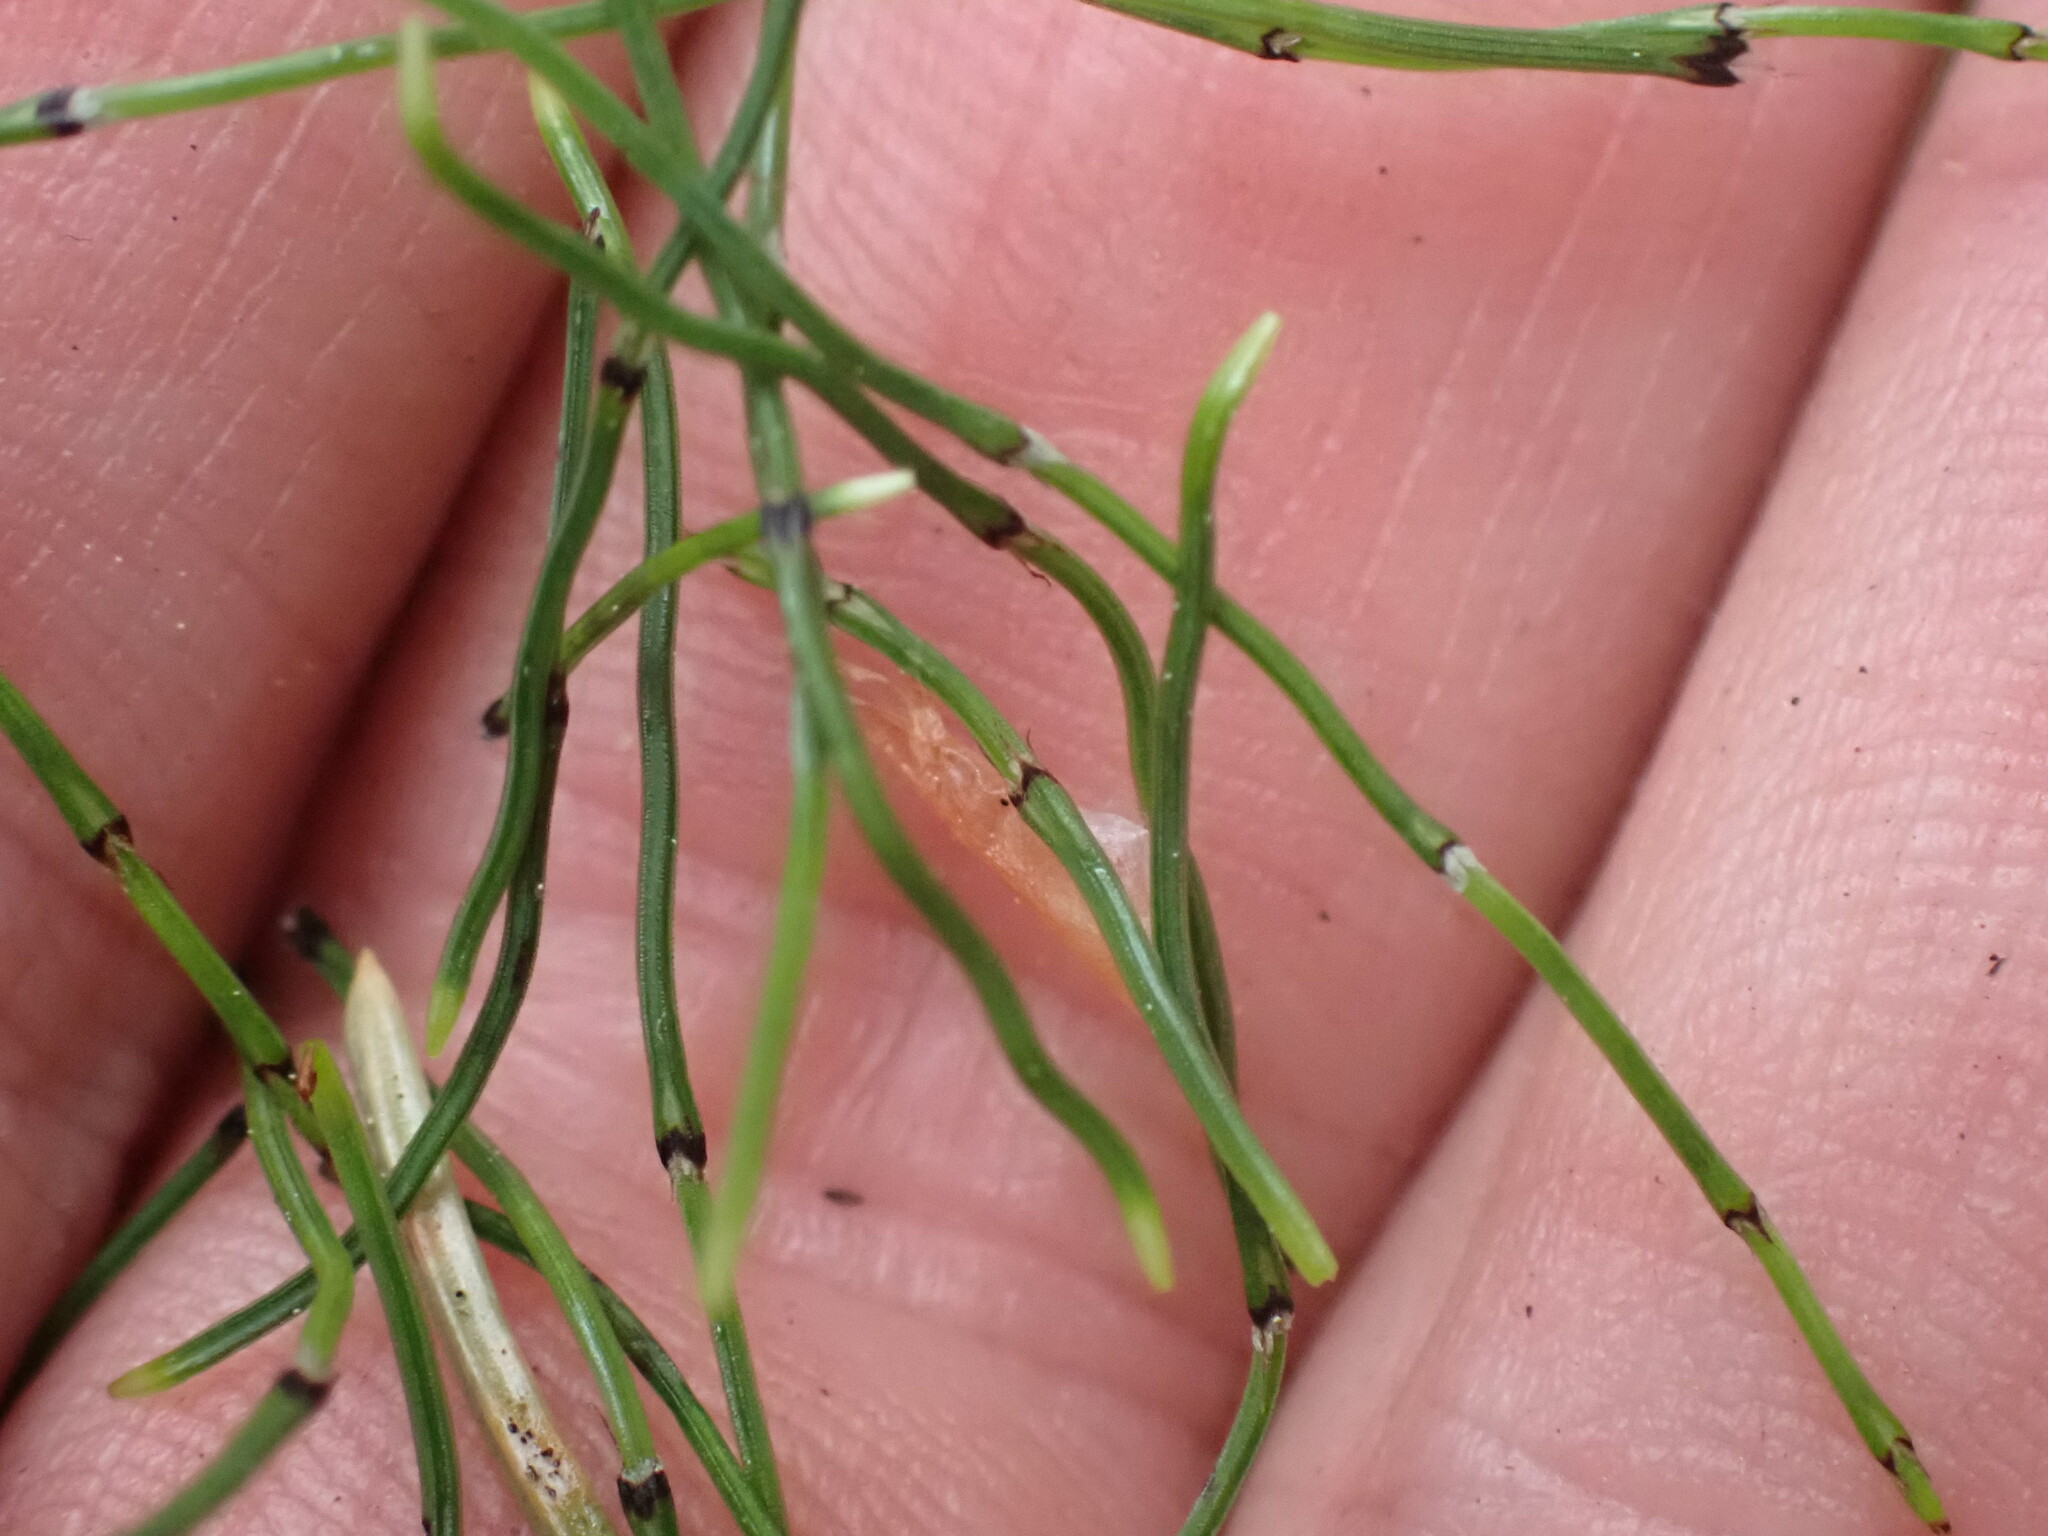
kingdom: Plantae
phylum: Tracheophyta
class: Polypodiopsida
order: Equisetales
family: Equisetaceae
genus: Equisetum
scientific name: Equisetum scirpoides
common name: Delicate horsetail
